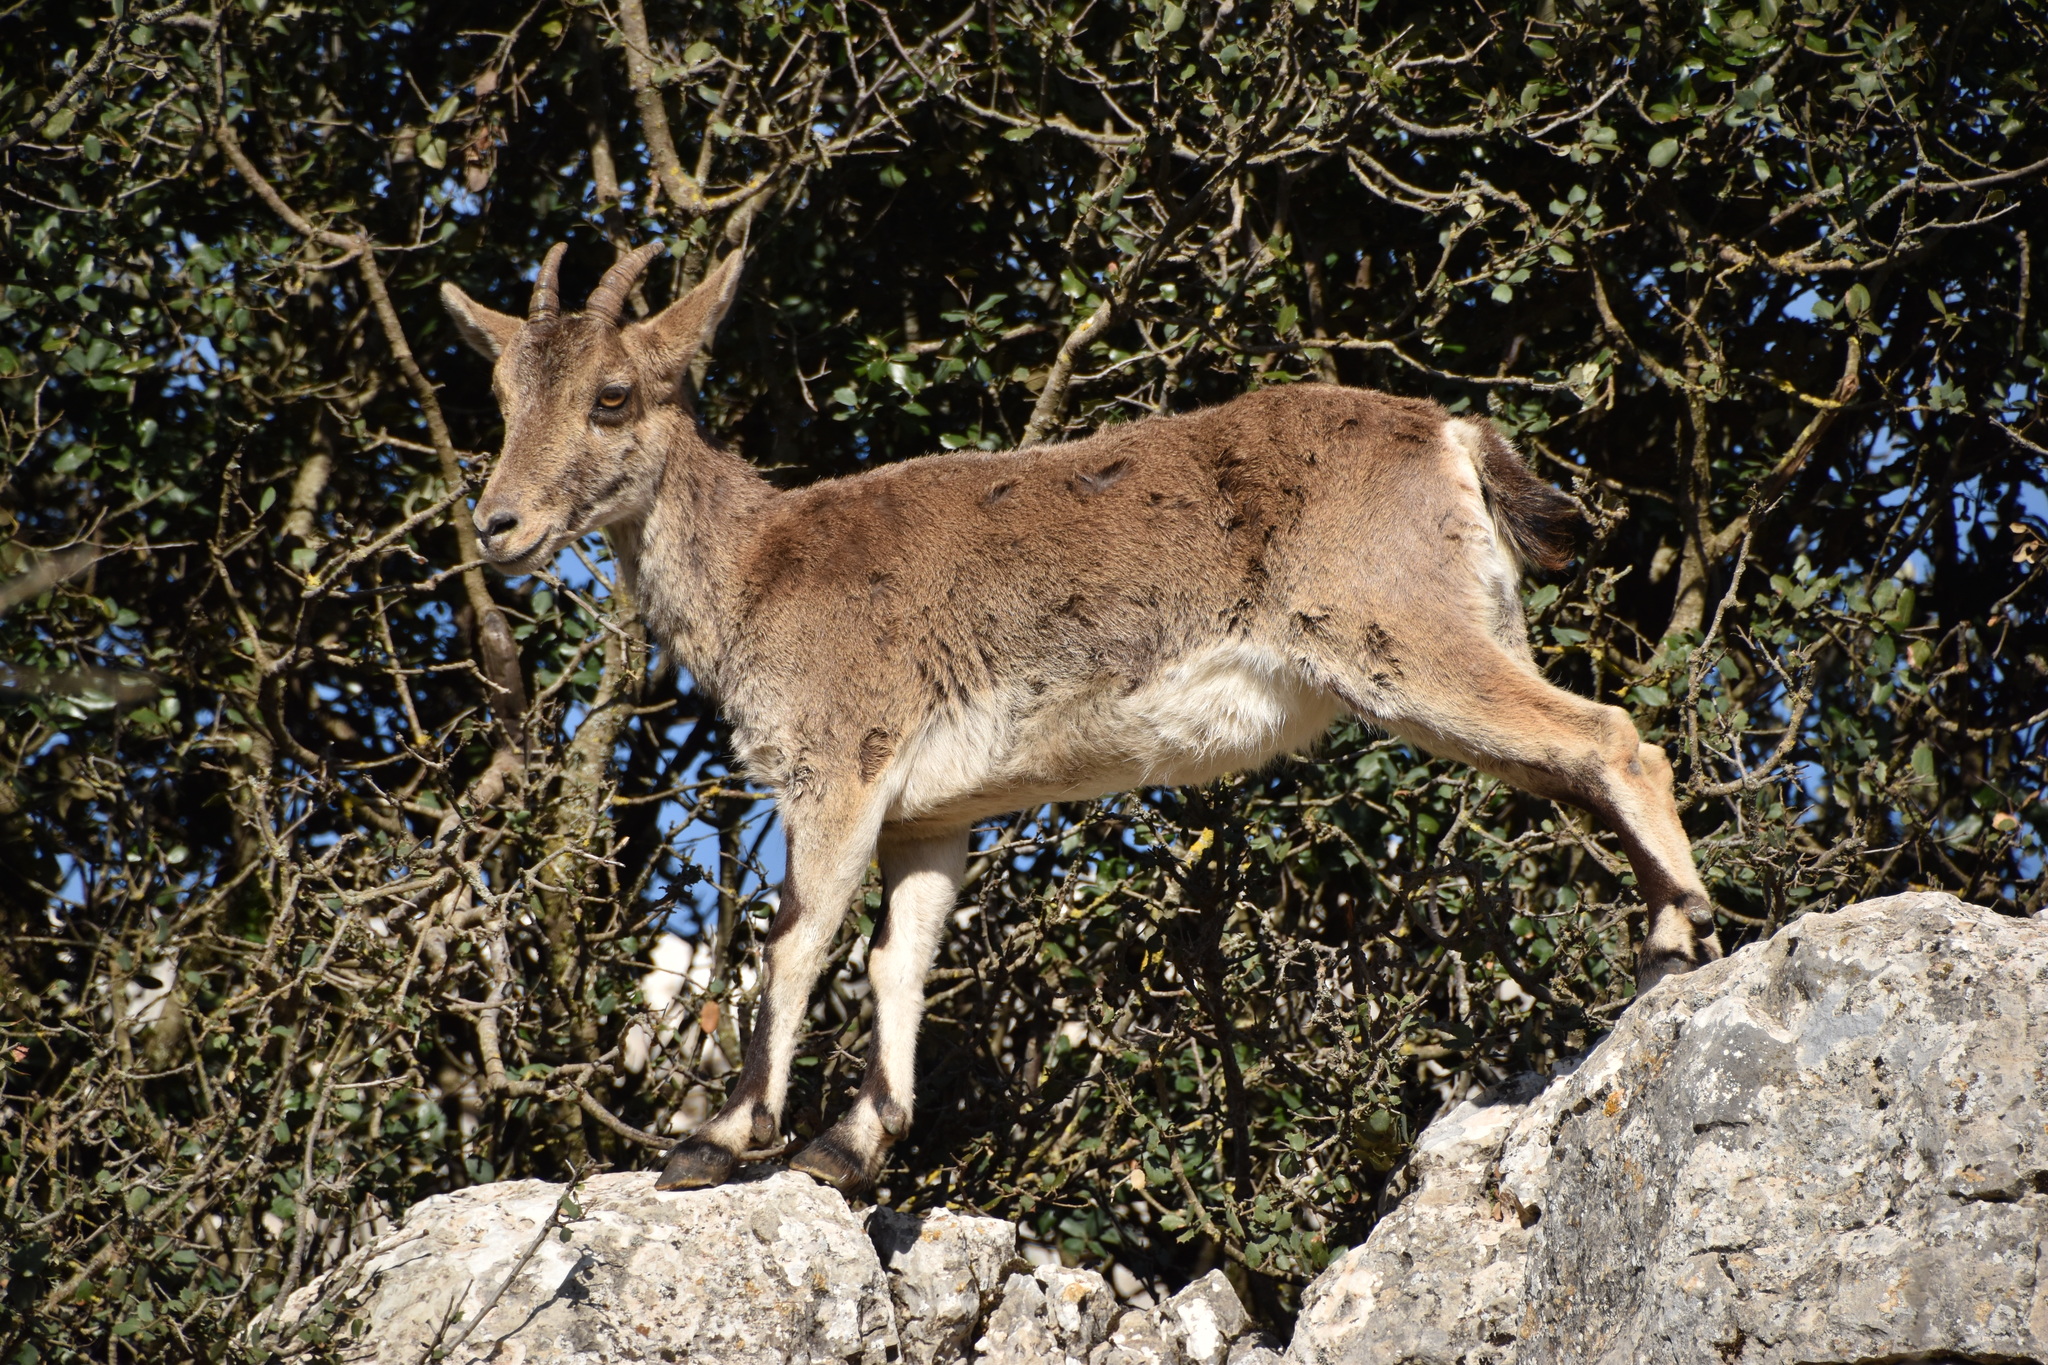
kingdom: Animalia
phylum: Chordata
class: Mammalia
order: Artiodactyla
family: Bovidae
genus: Capra
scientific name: Capra pyrenaica
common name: Spanish ibex
